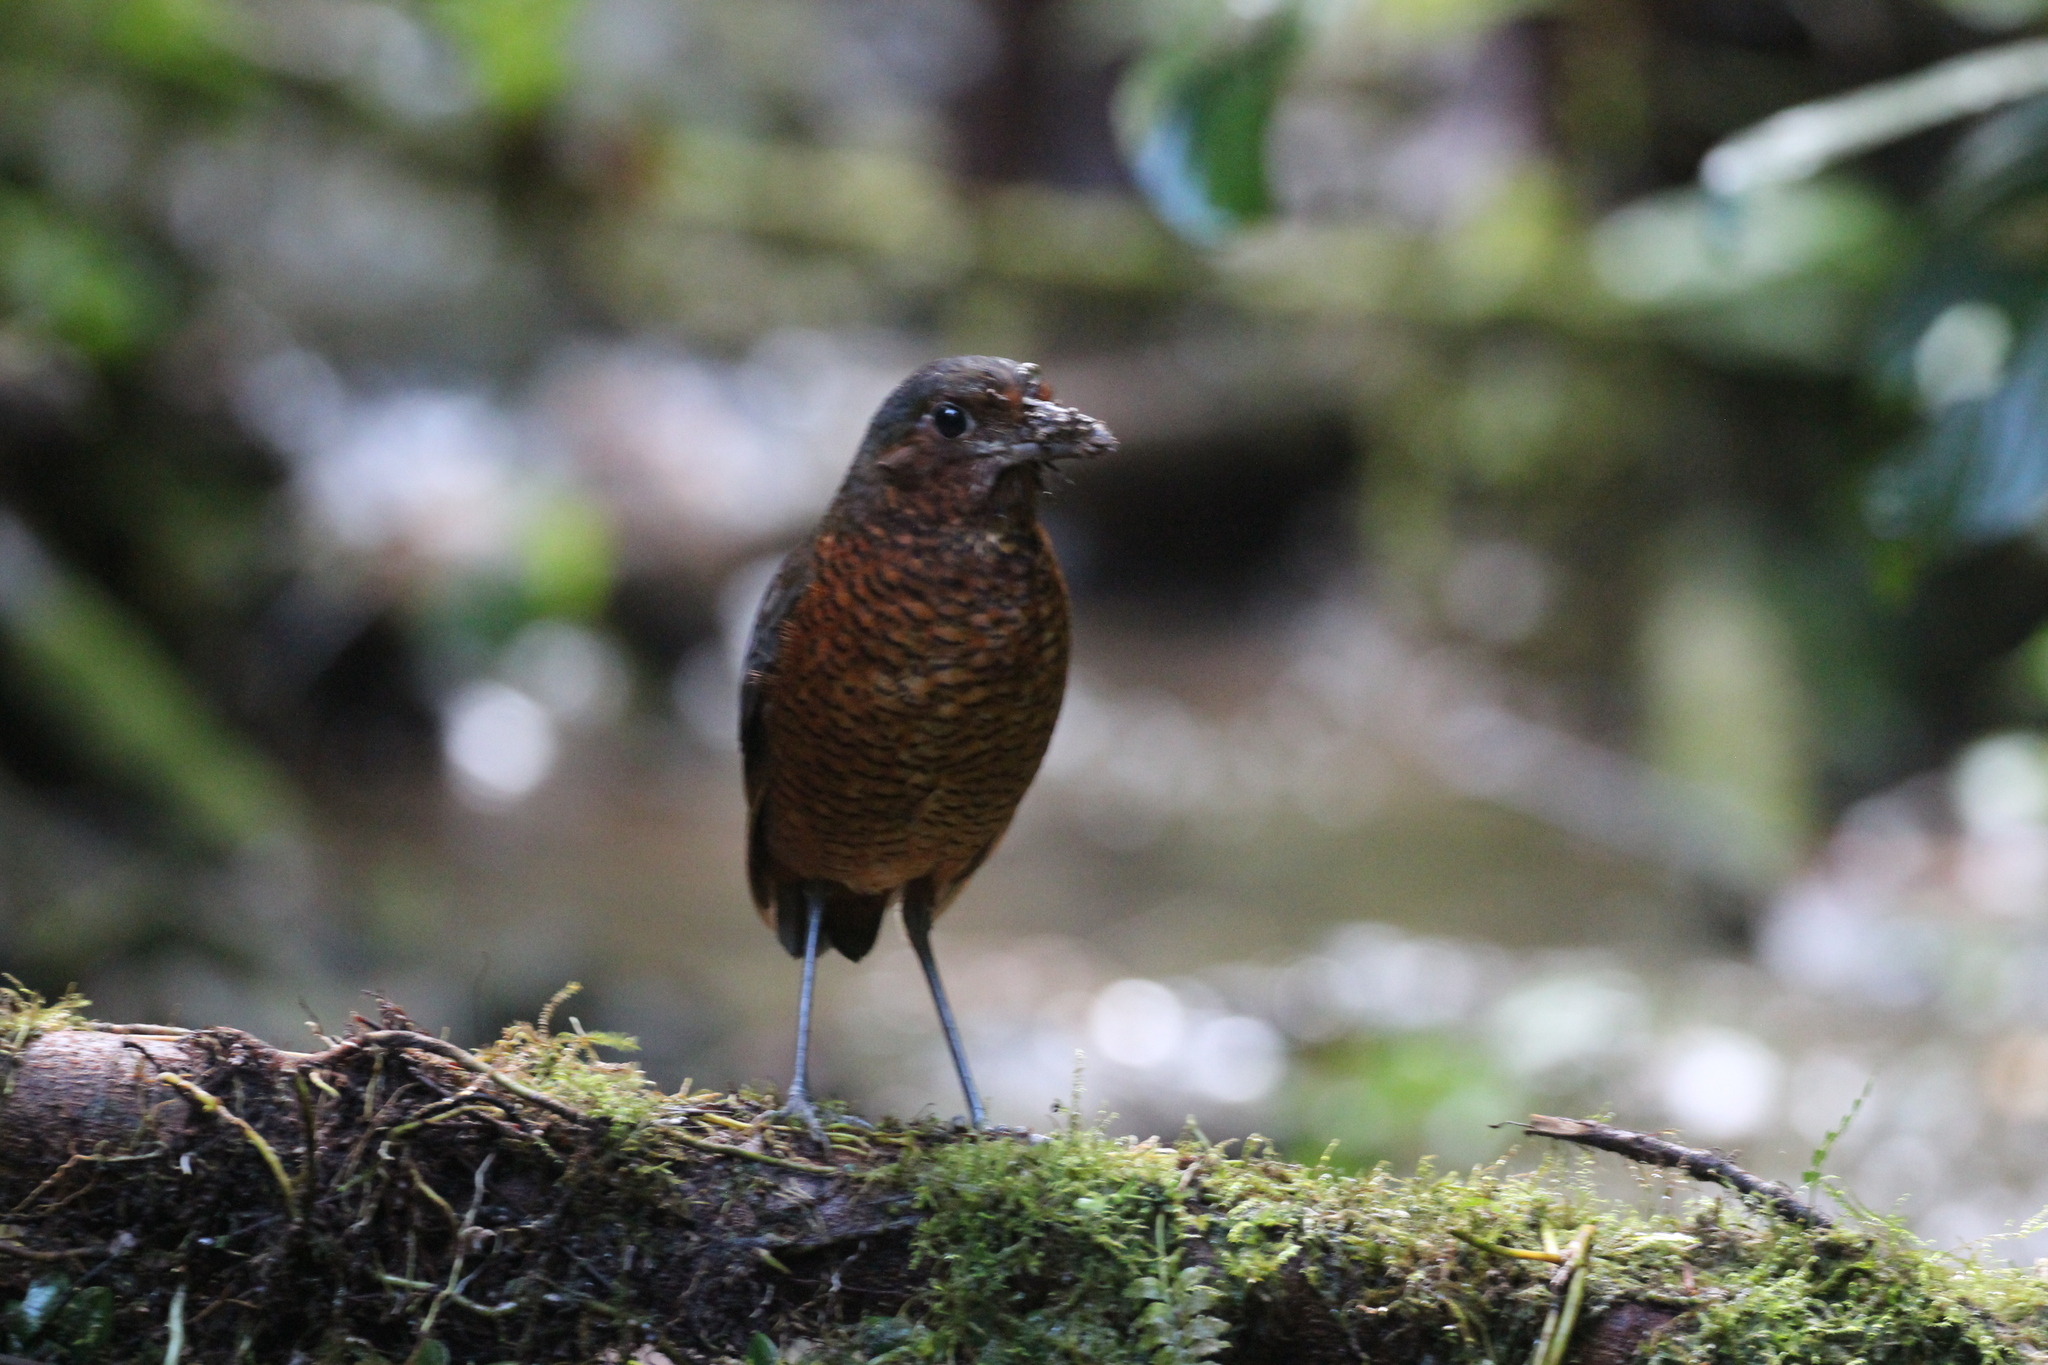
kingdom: Animalia
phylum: Chordata
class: Aves
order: Passeriformes
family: Grallariidae
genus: Grallaria
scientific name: Grallaria gigantea
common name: Giant antpitta
